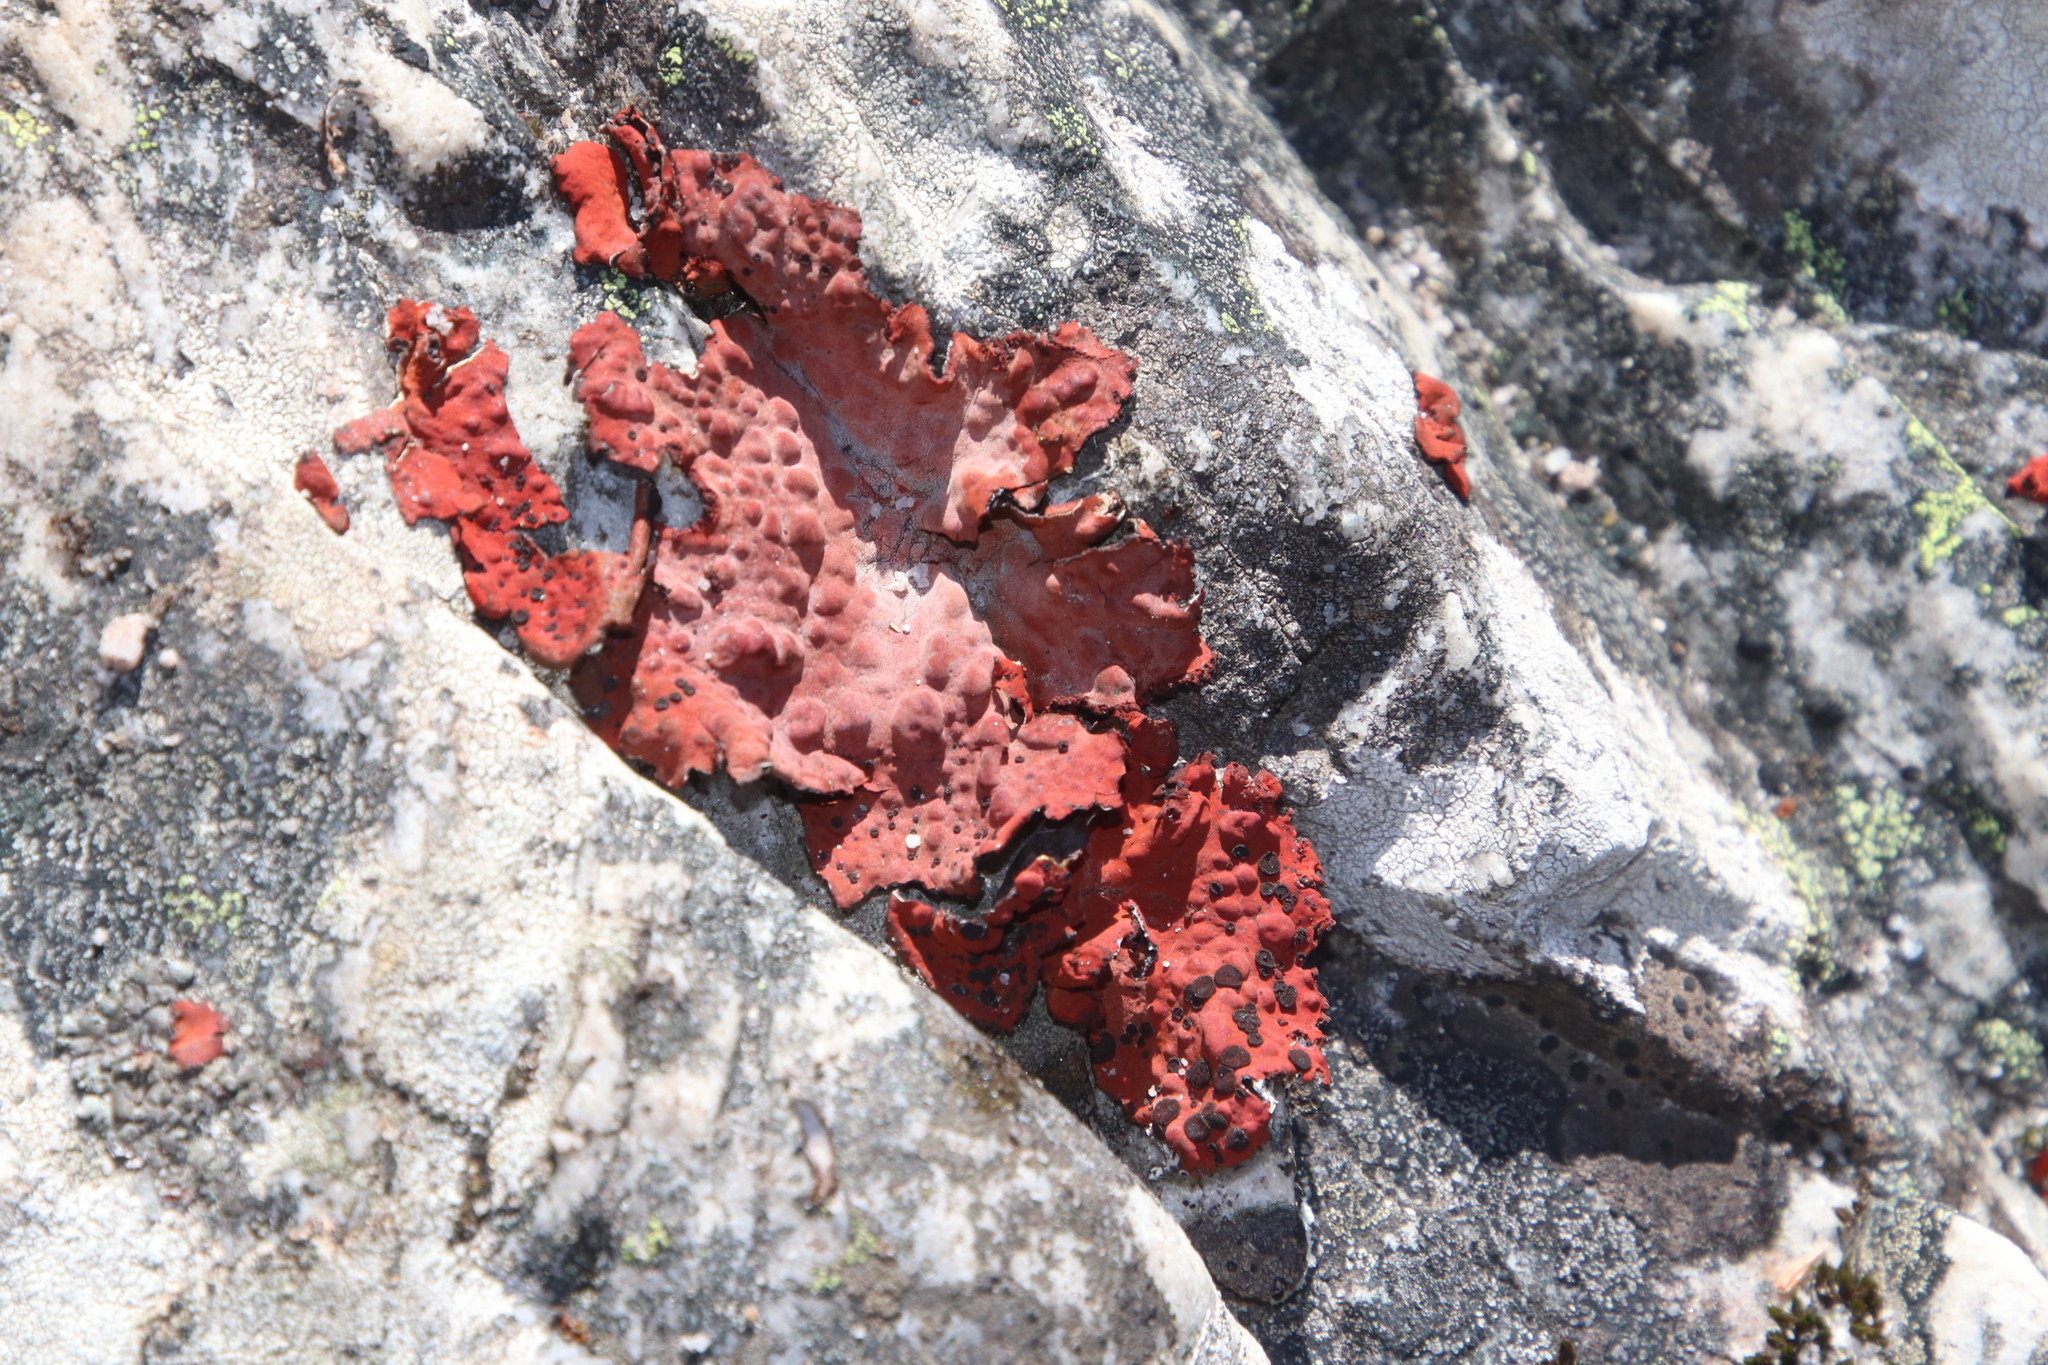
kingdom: Fungi
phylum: Ascomycota
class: Lecanoromycetes
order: Umbilicariales
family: Umbilicariaceae
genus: Lasallia
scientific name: Lasallia rubiginosa
